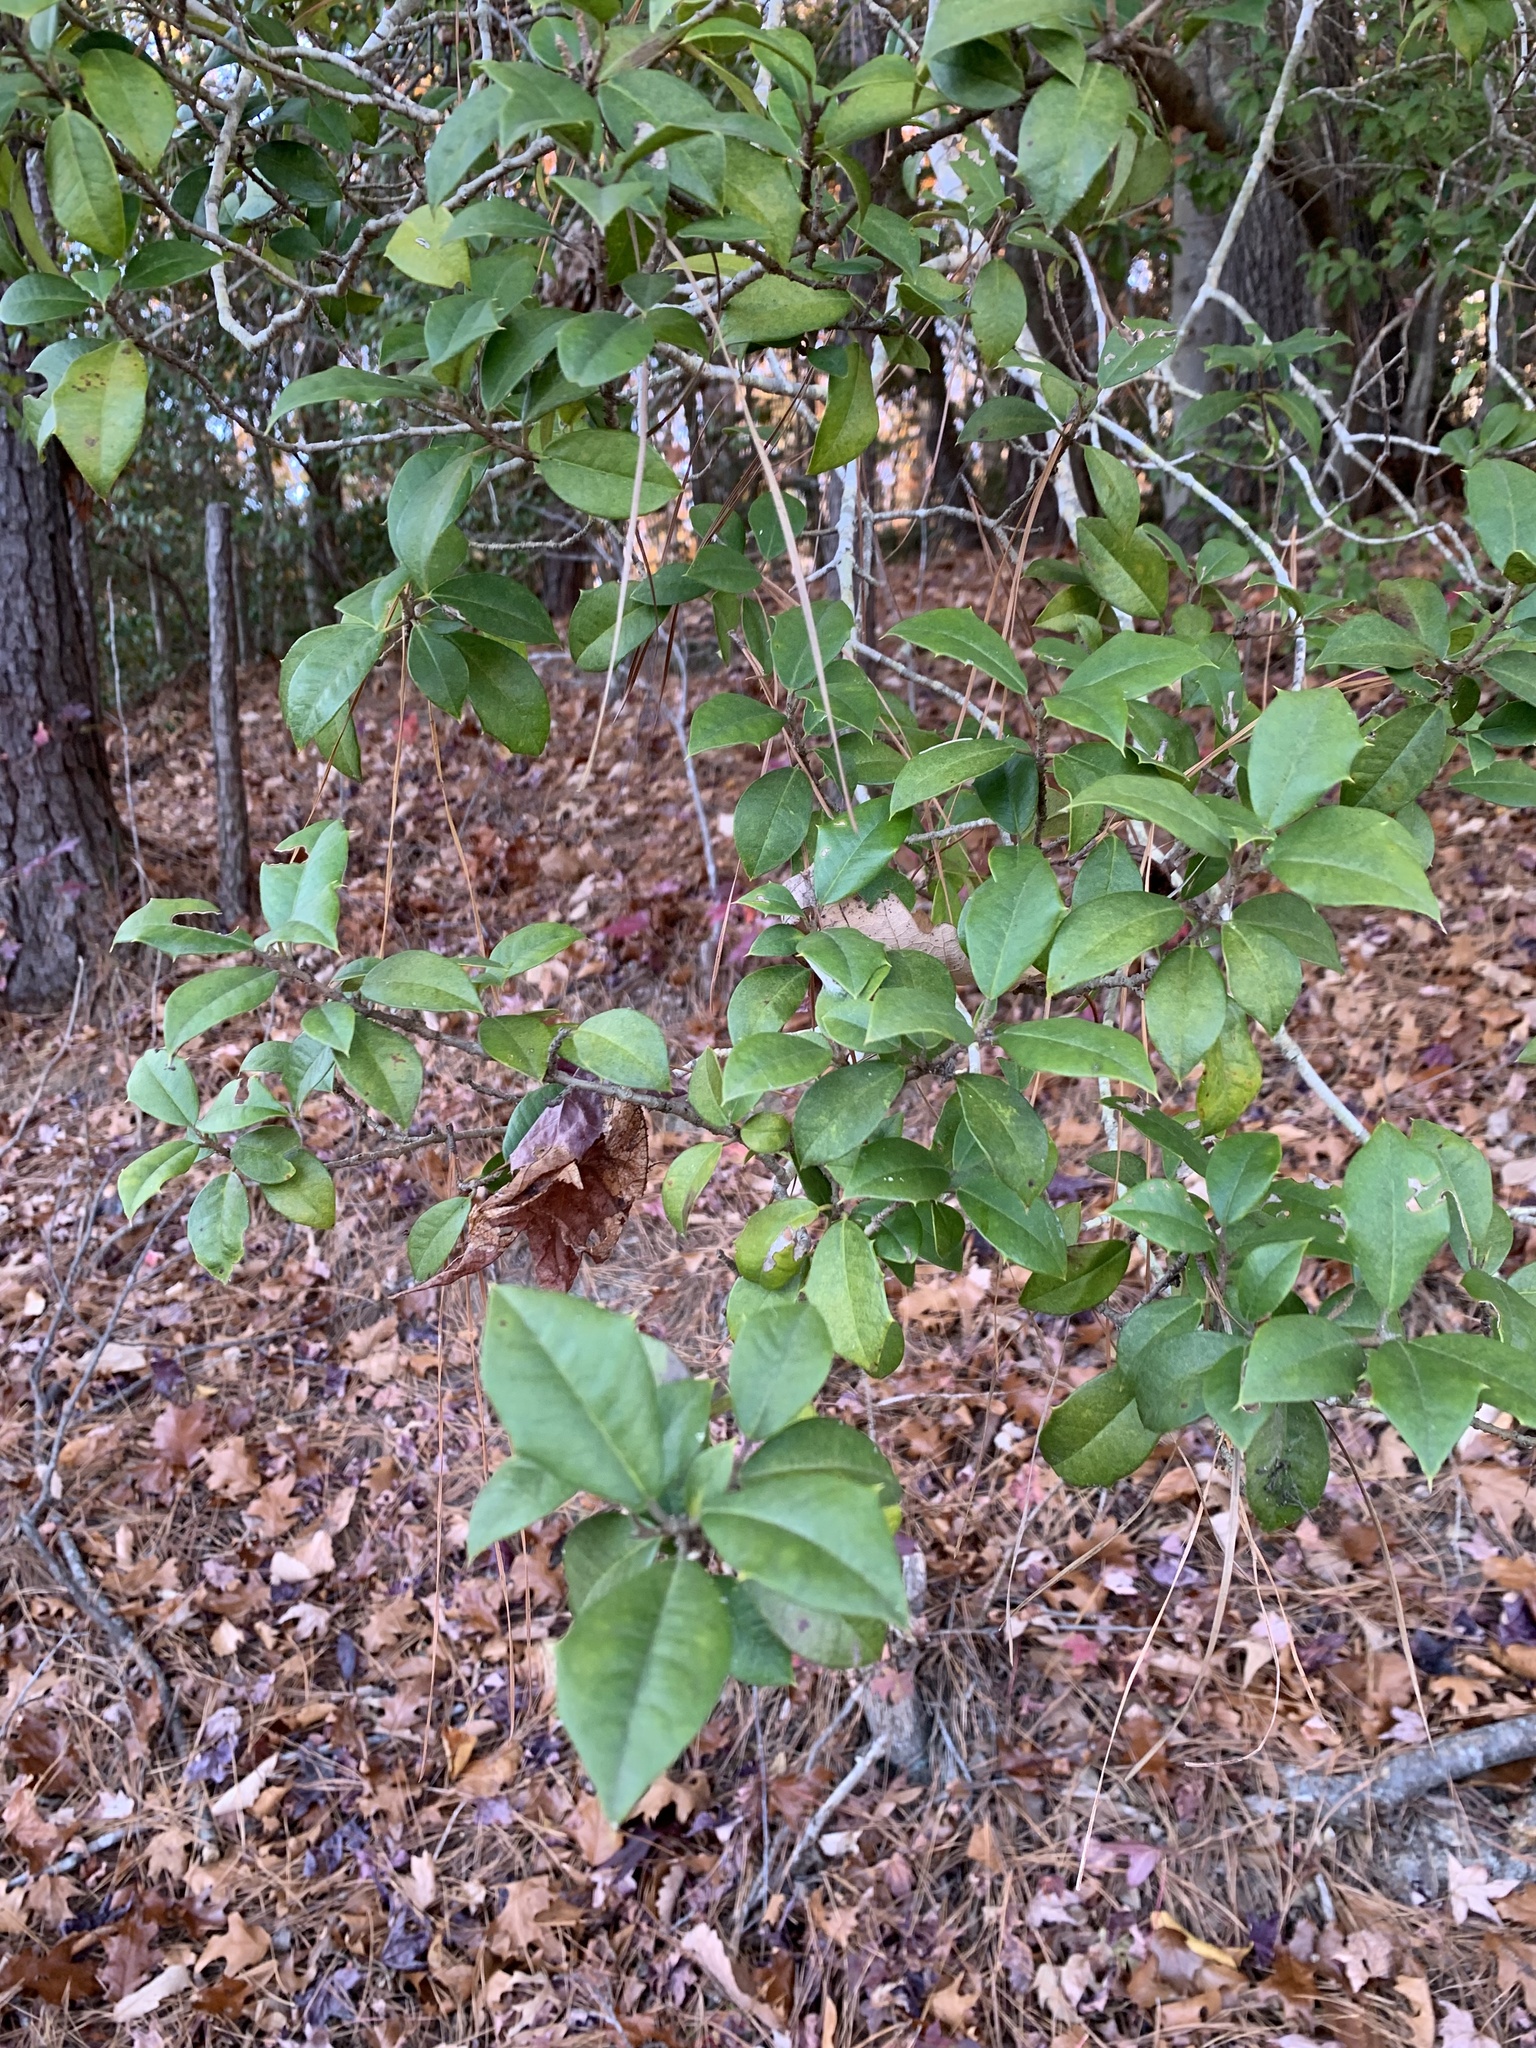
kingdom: Plantae
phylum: Tracheophyta
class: Magnoliopsida
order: Aquifoliales
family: Aquifoliaceae
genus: Ilex
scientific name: Ilex opaca
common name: American holly
